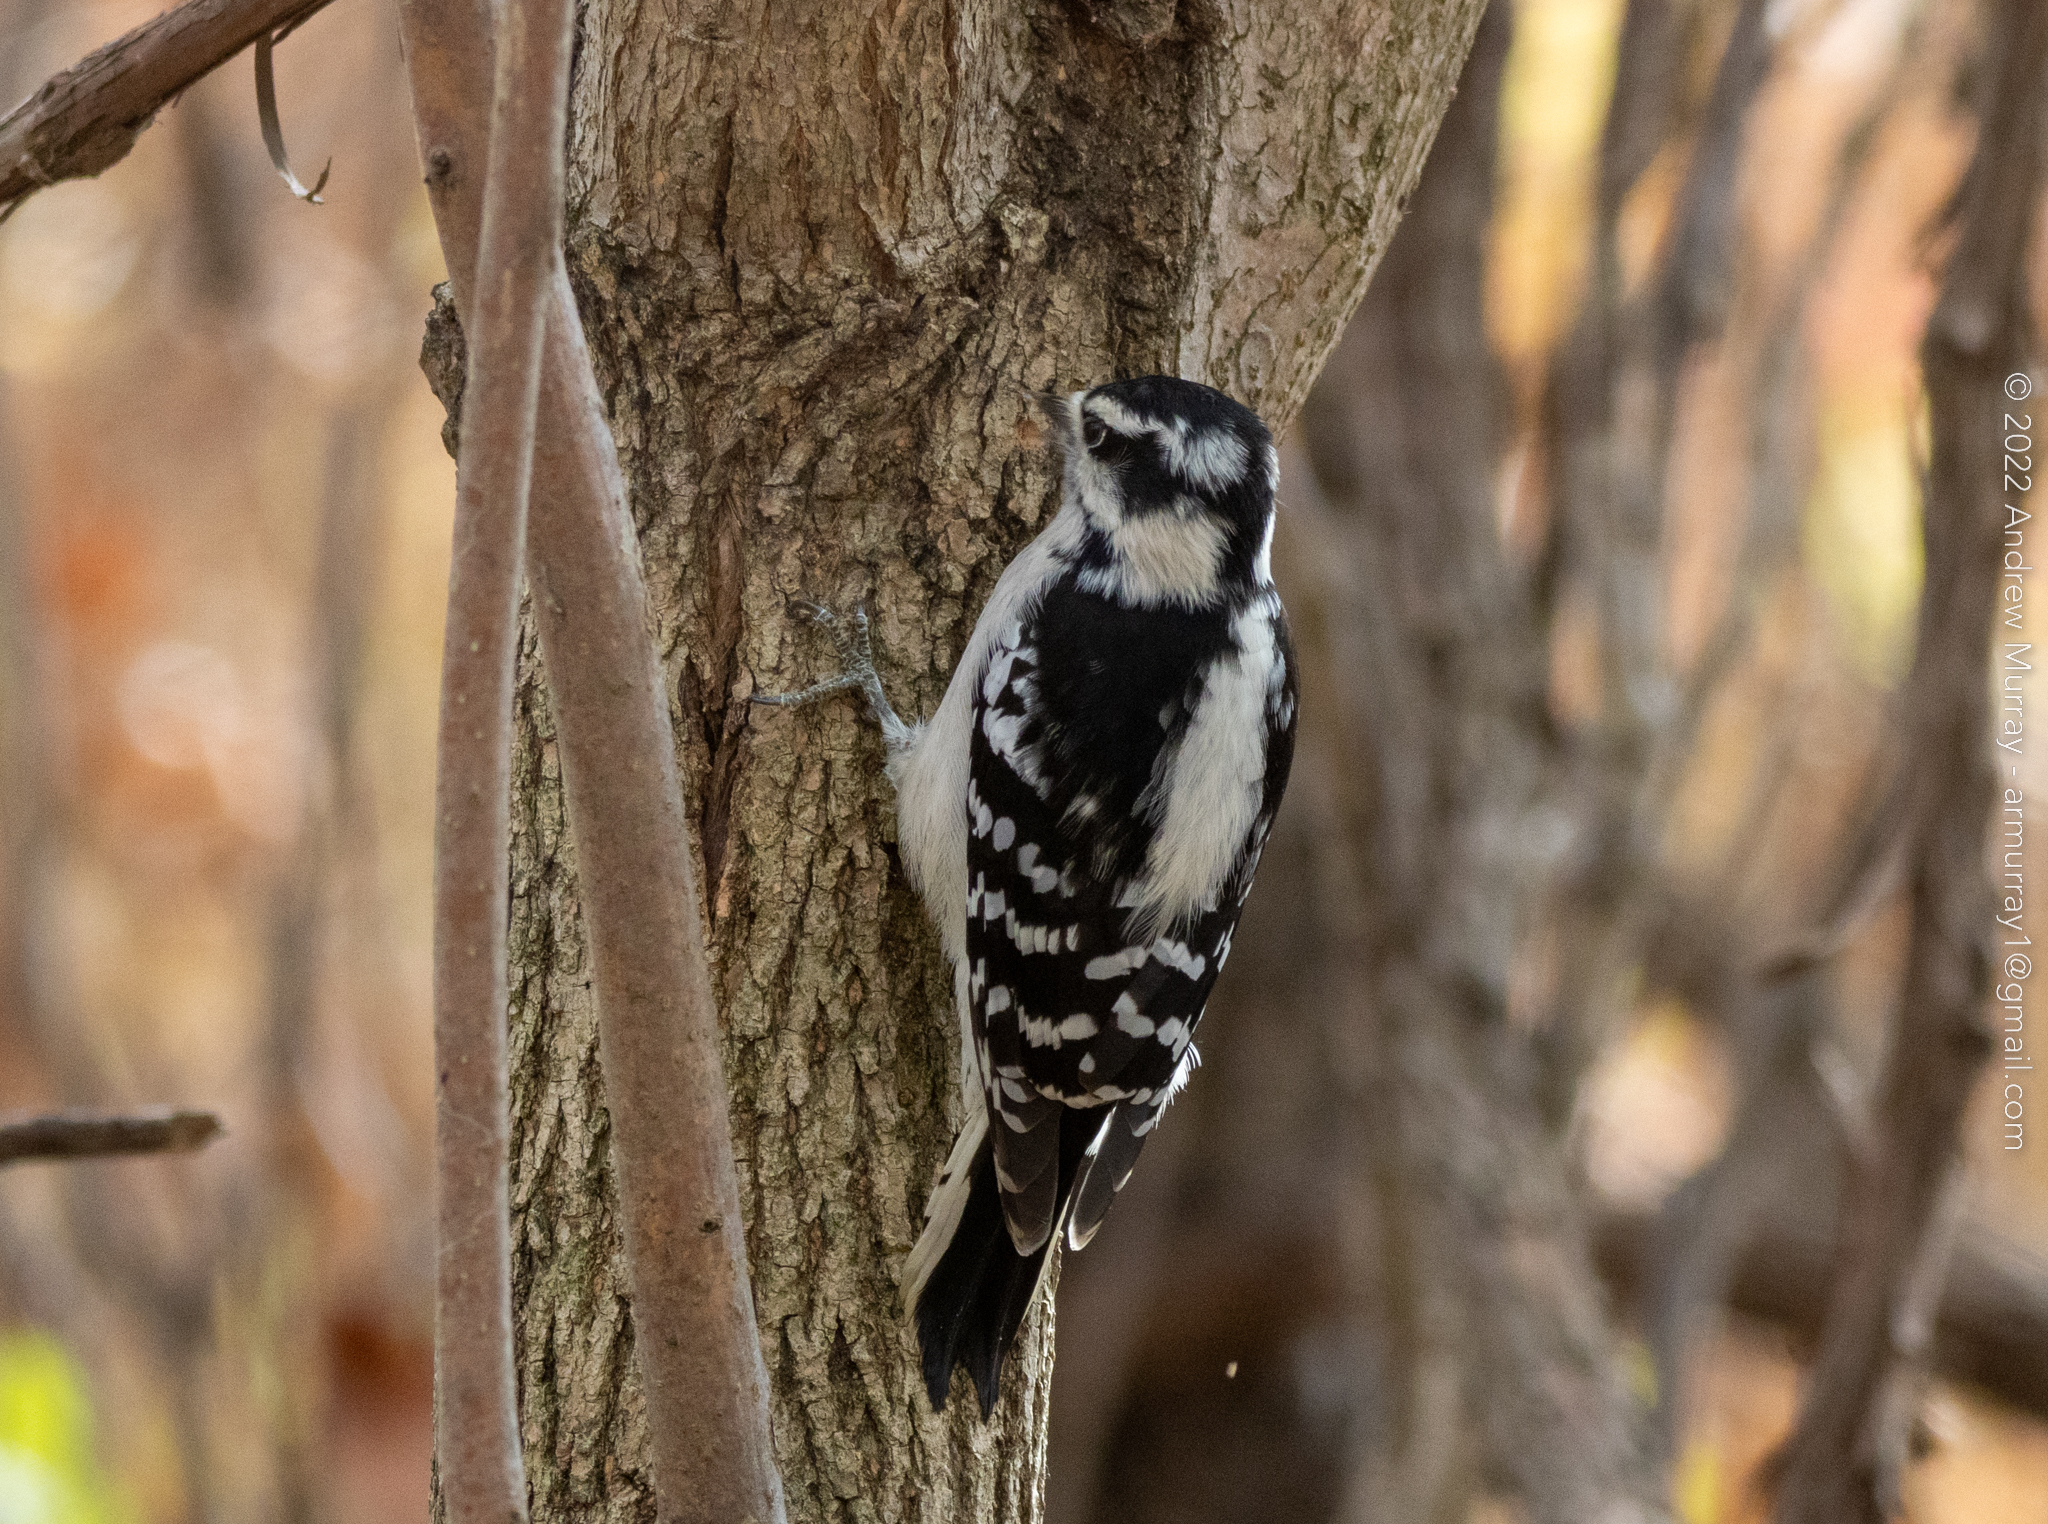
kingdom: Animalia
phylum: Chordata
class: Aves
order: Piciformes
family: Picidae
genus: Dryobates
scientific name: Dryobates pubescens
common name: Downy woodpecker
